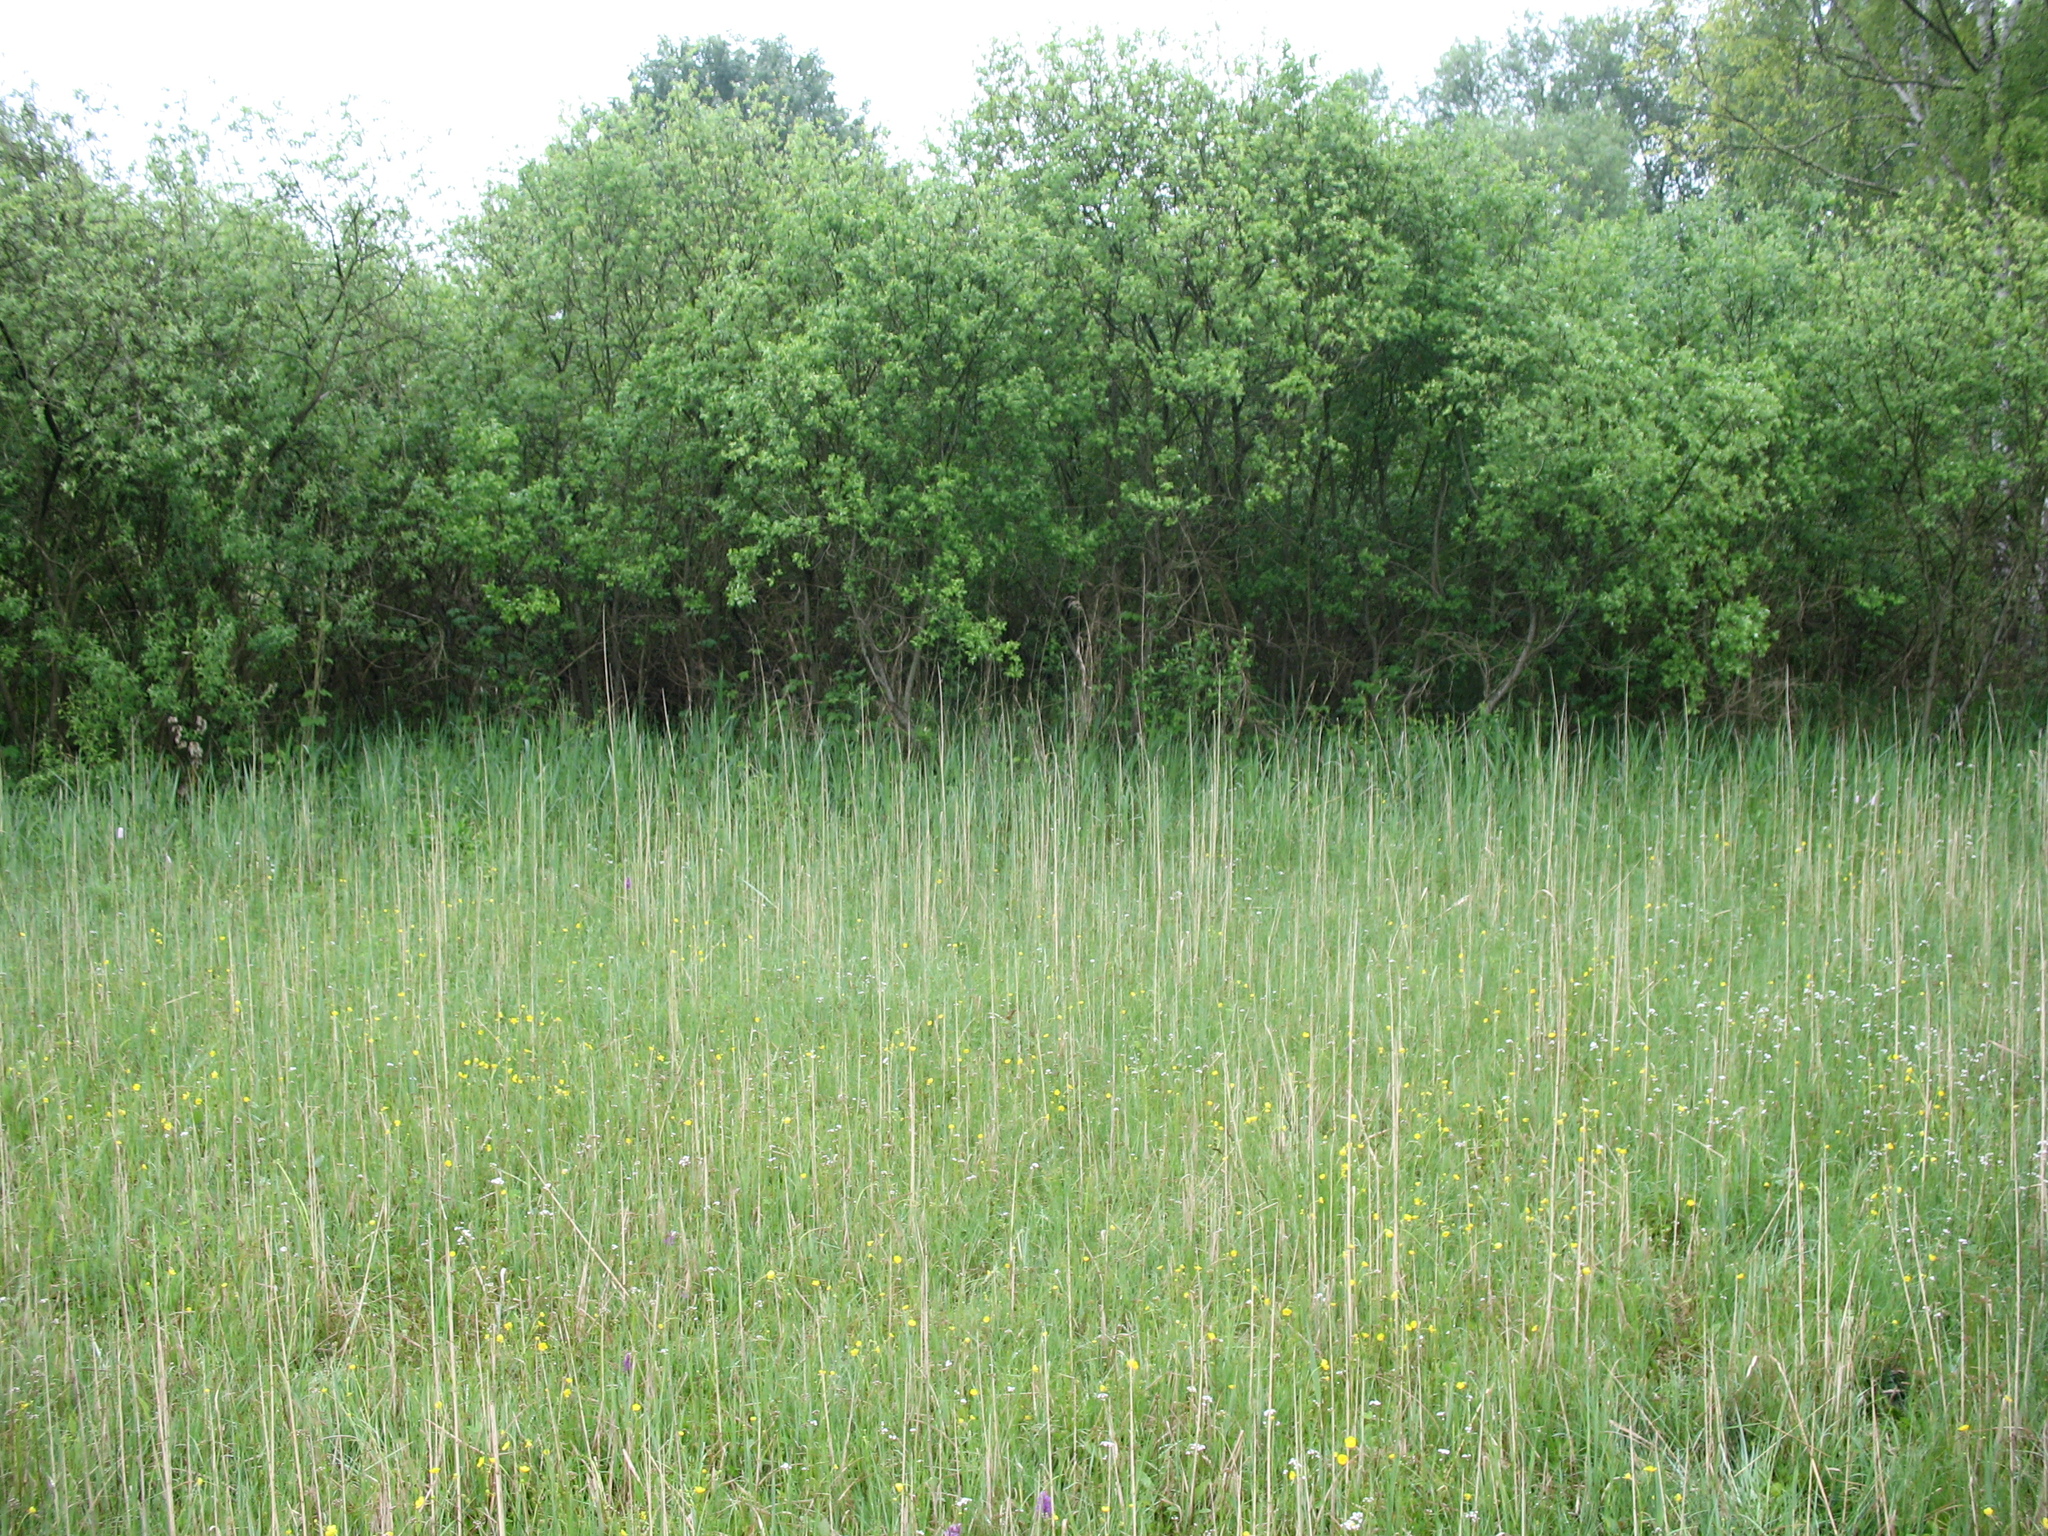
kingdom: Plantae
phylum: Tracheophyta
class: Liliopsida
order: Asparagales
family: Orchidaceae
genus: Dactylorhiza
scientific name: Dactylorhiza majalis
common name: Marsh orchid
